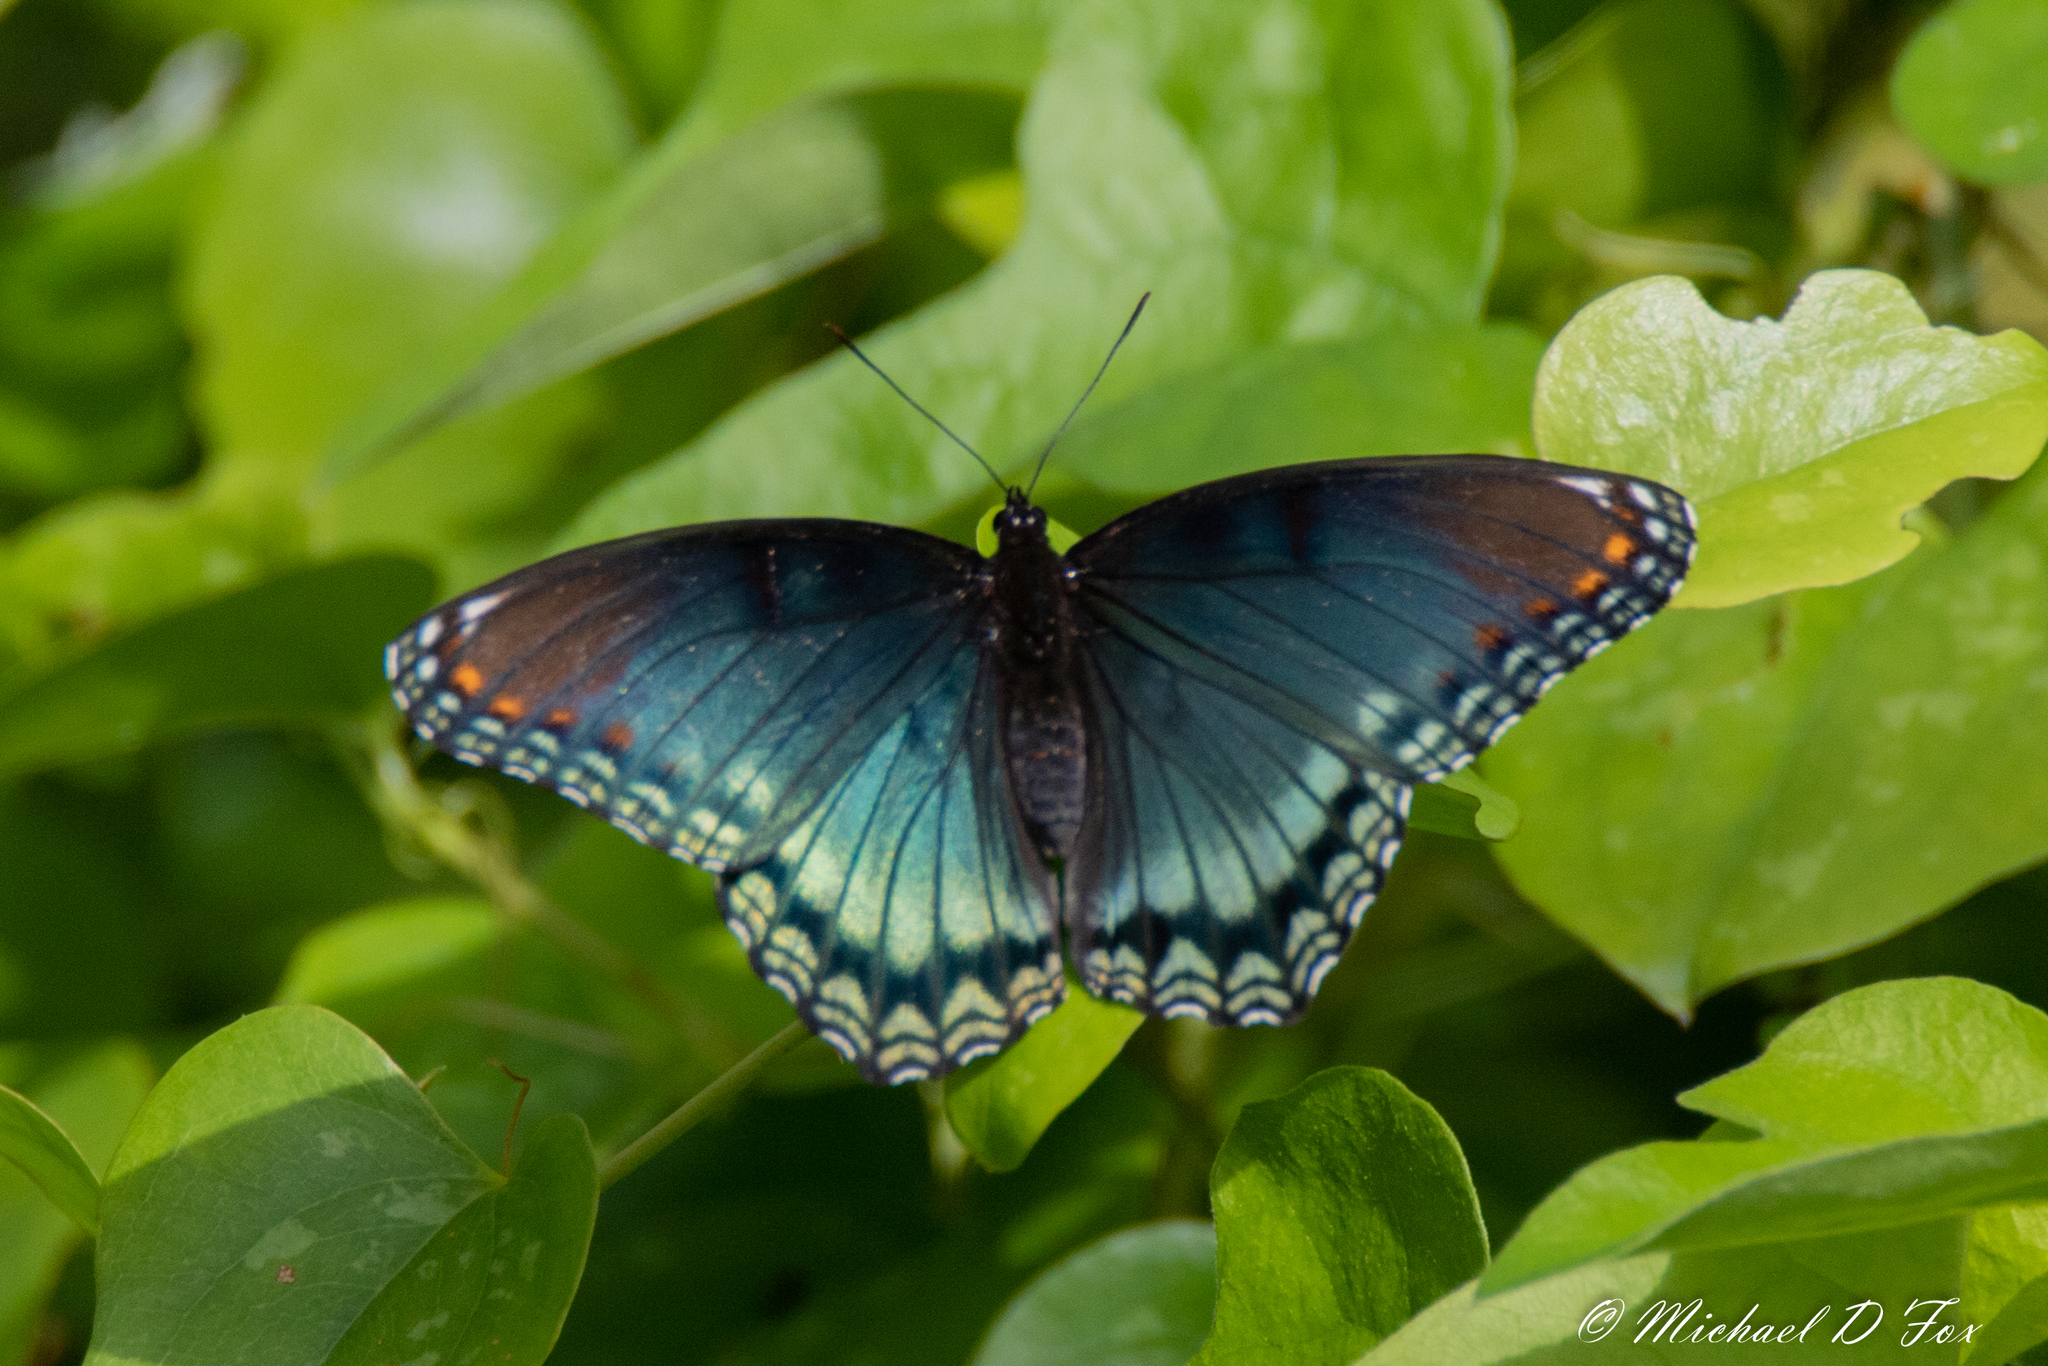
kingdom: Animalia
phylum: Arthropoda
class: Insecta
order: Lepidoptera
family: Nymphalidae
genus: Limenitis
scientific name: Limenitis astyanax
